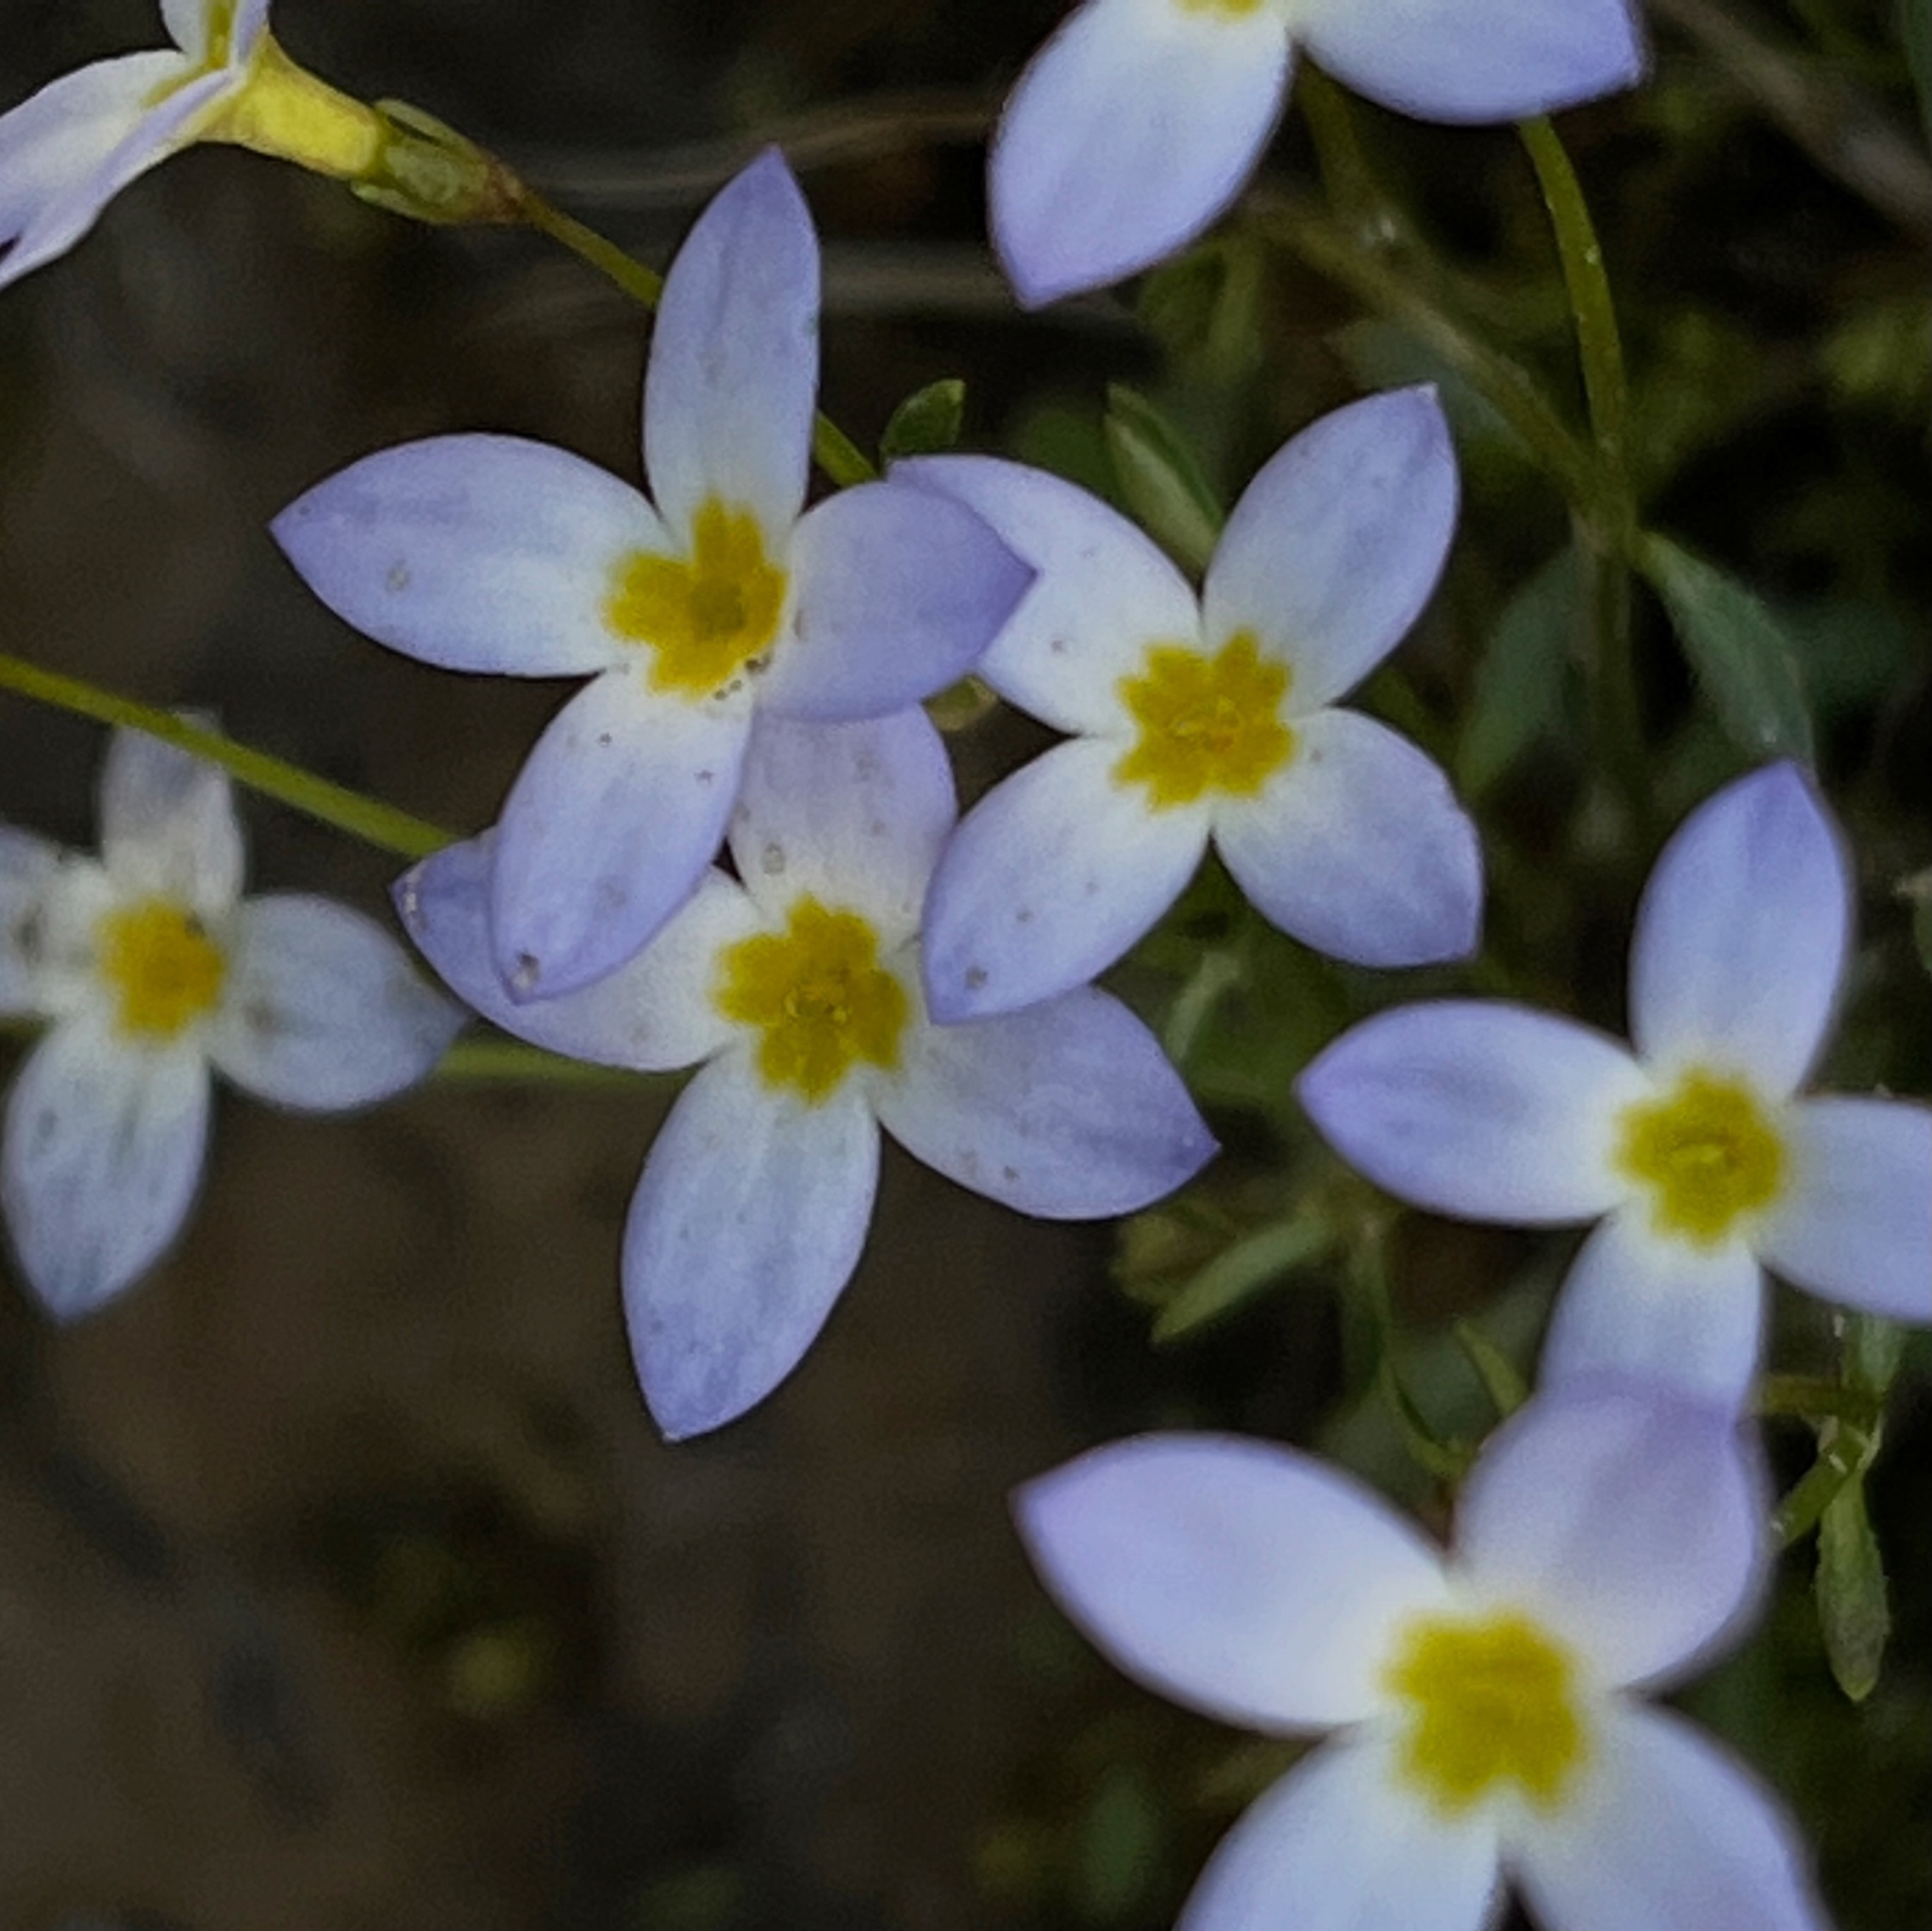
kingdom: Plantae
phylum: Tracheophyta
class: Magnoliopsida
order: Gentianales
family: Rubiaceae
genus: Houstonia
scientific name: Houstonia caerulea
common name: Bluets
